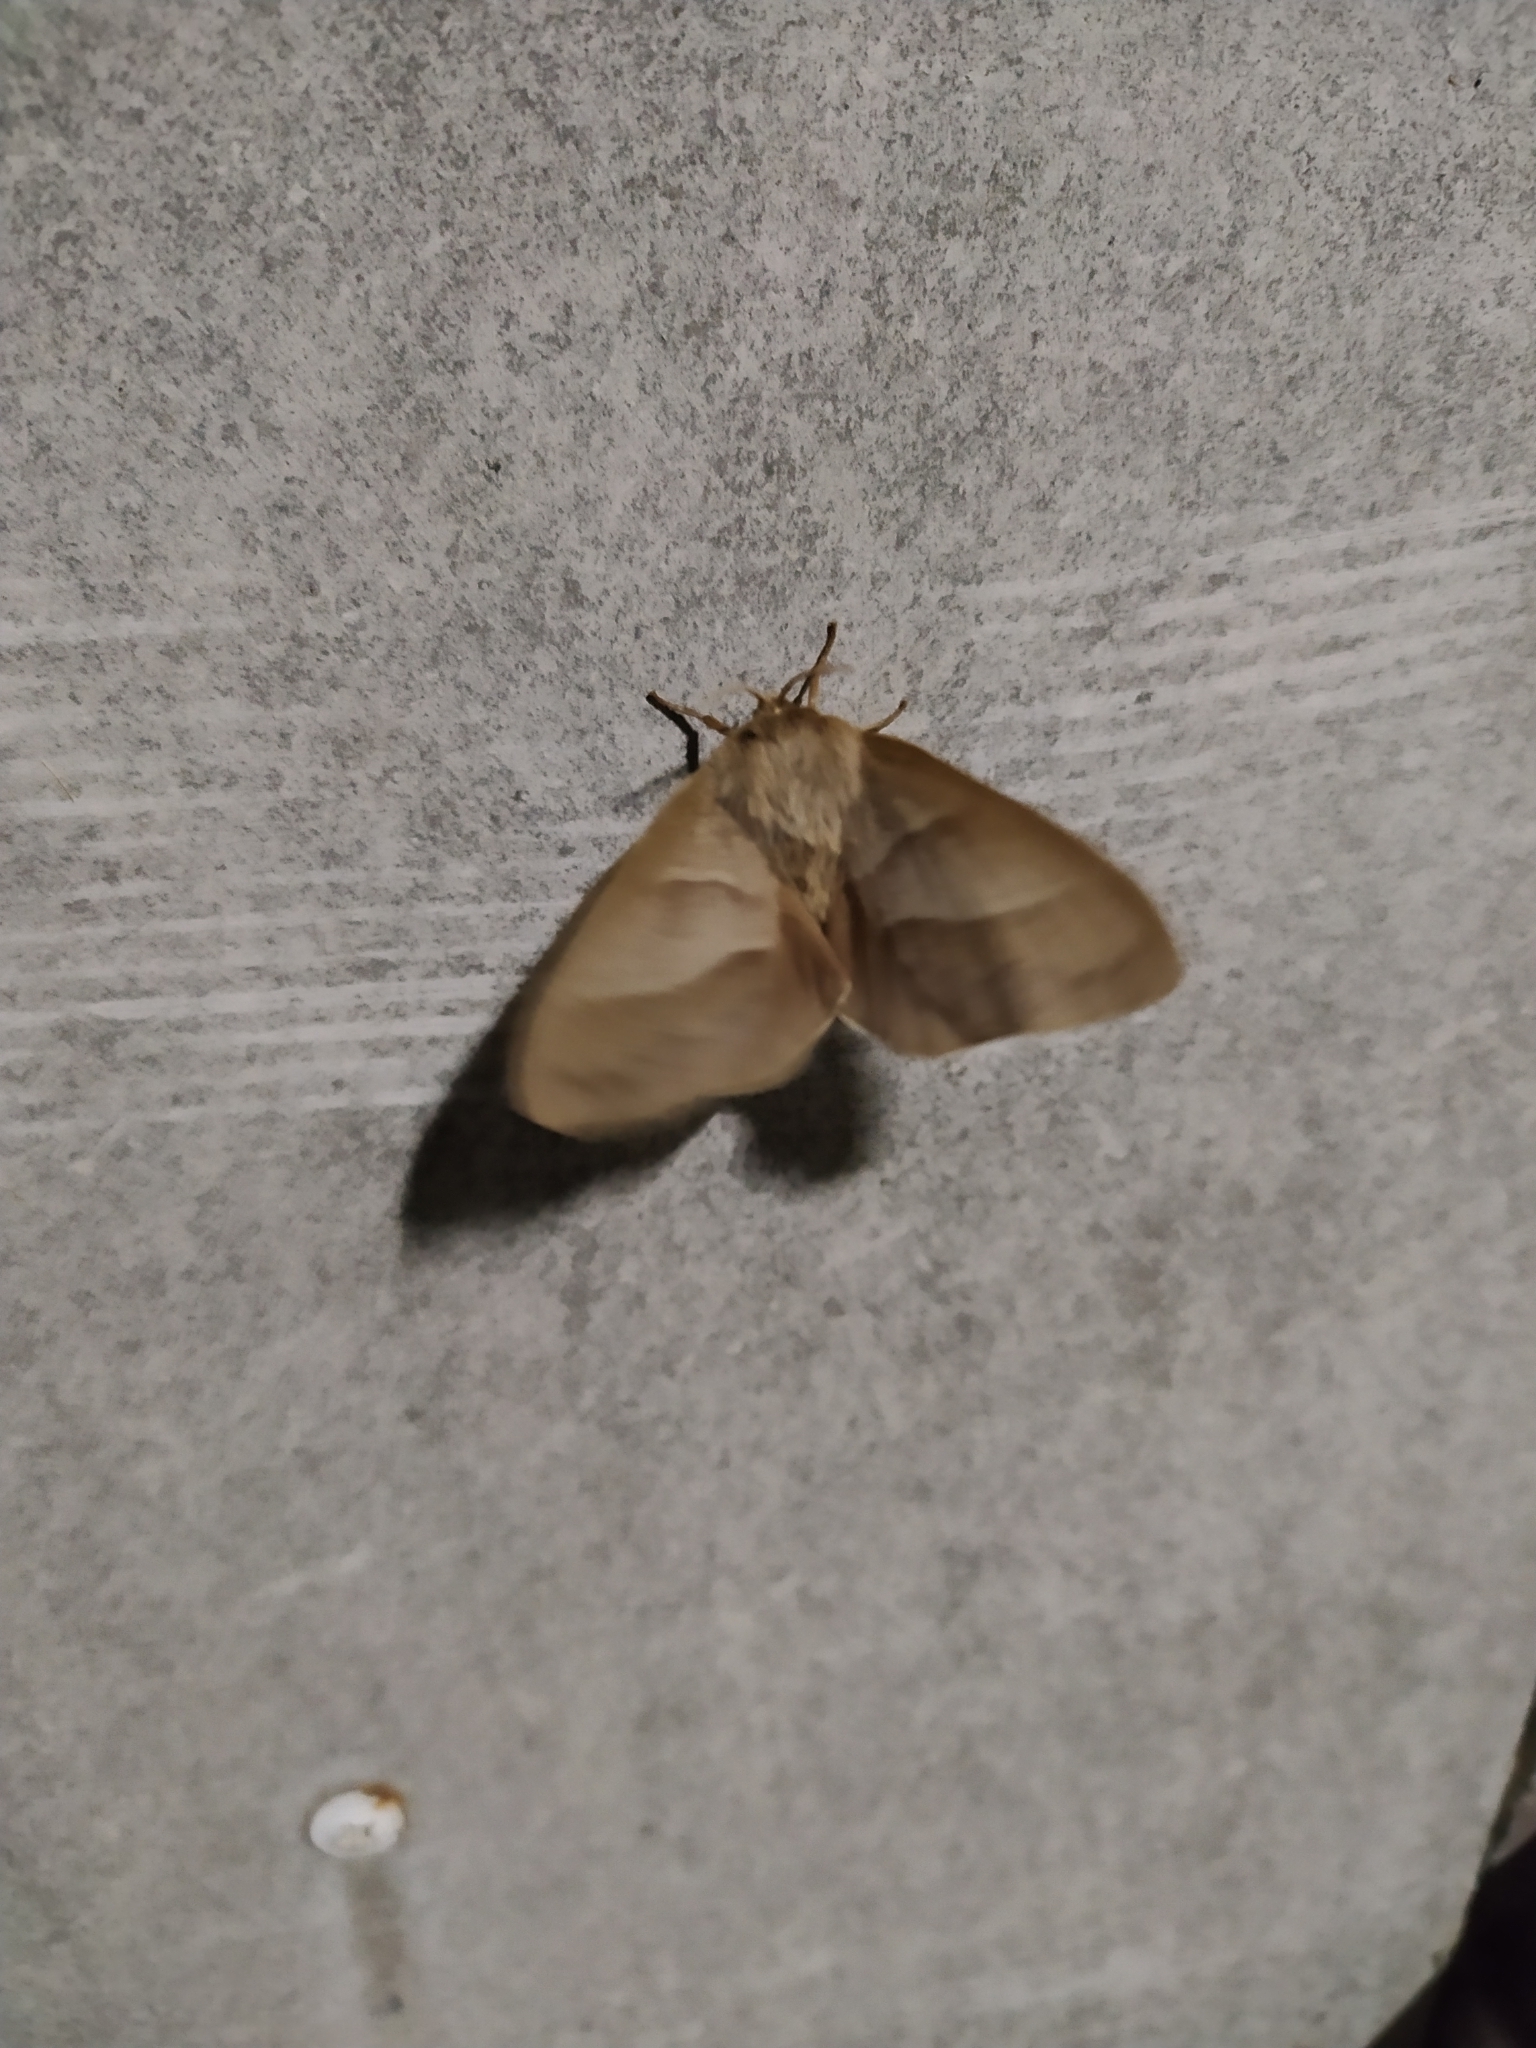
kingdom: Animalia
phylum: Arthropoda
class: Insecta
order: Lepidoptera
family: Lasiocampidae
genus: Macrothylacia
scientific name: Macrothylacia rubi
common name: Fox moth
